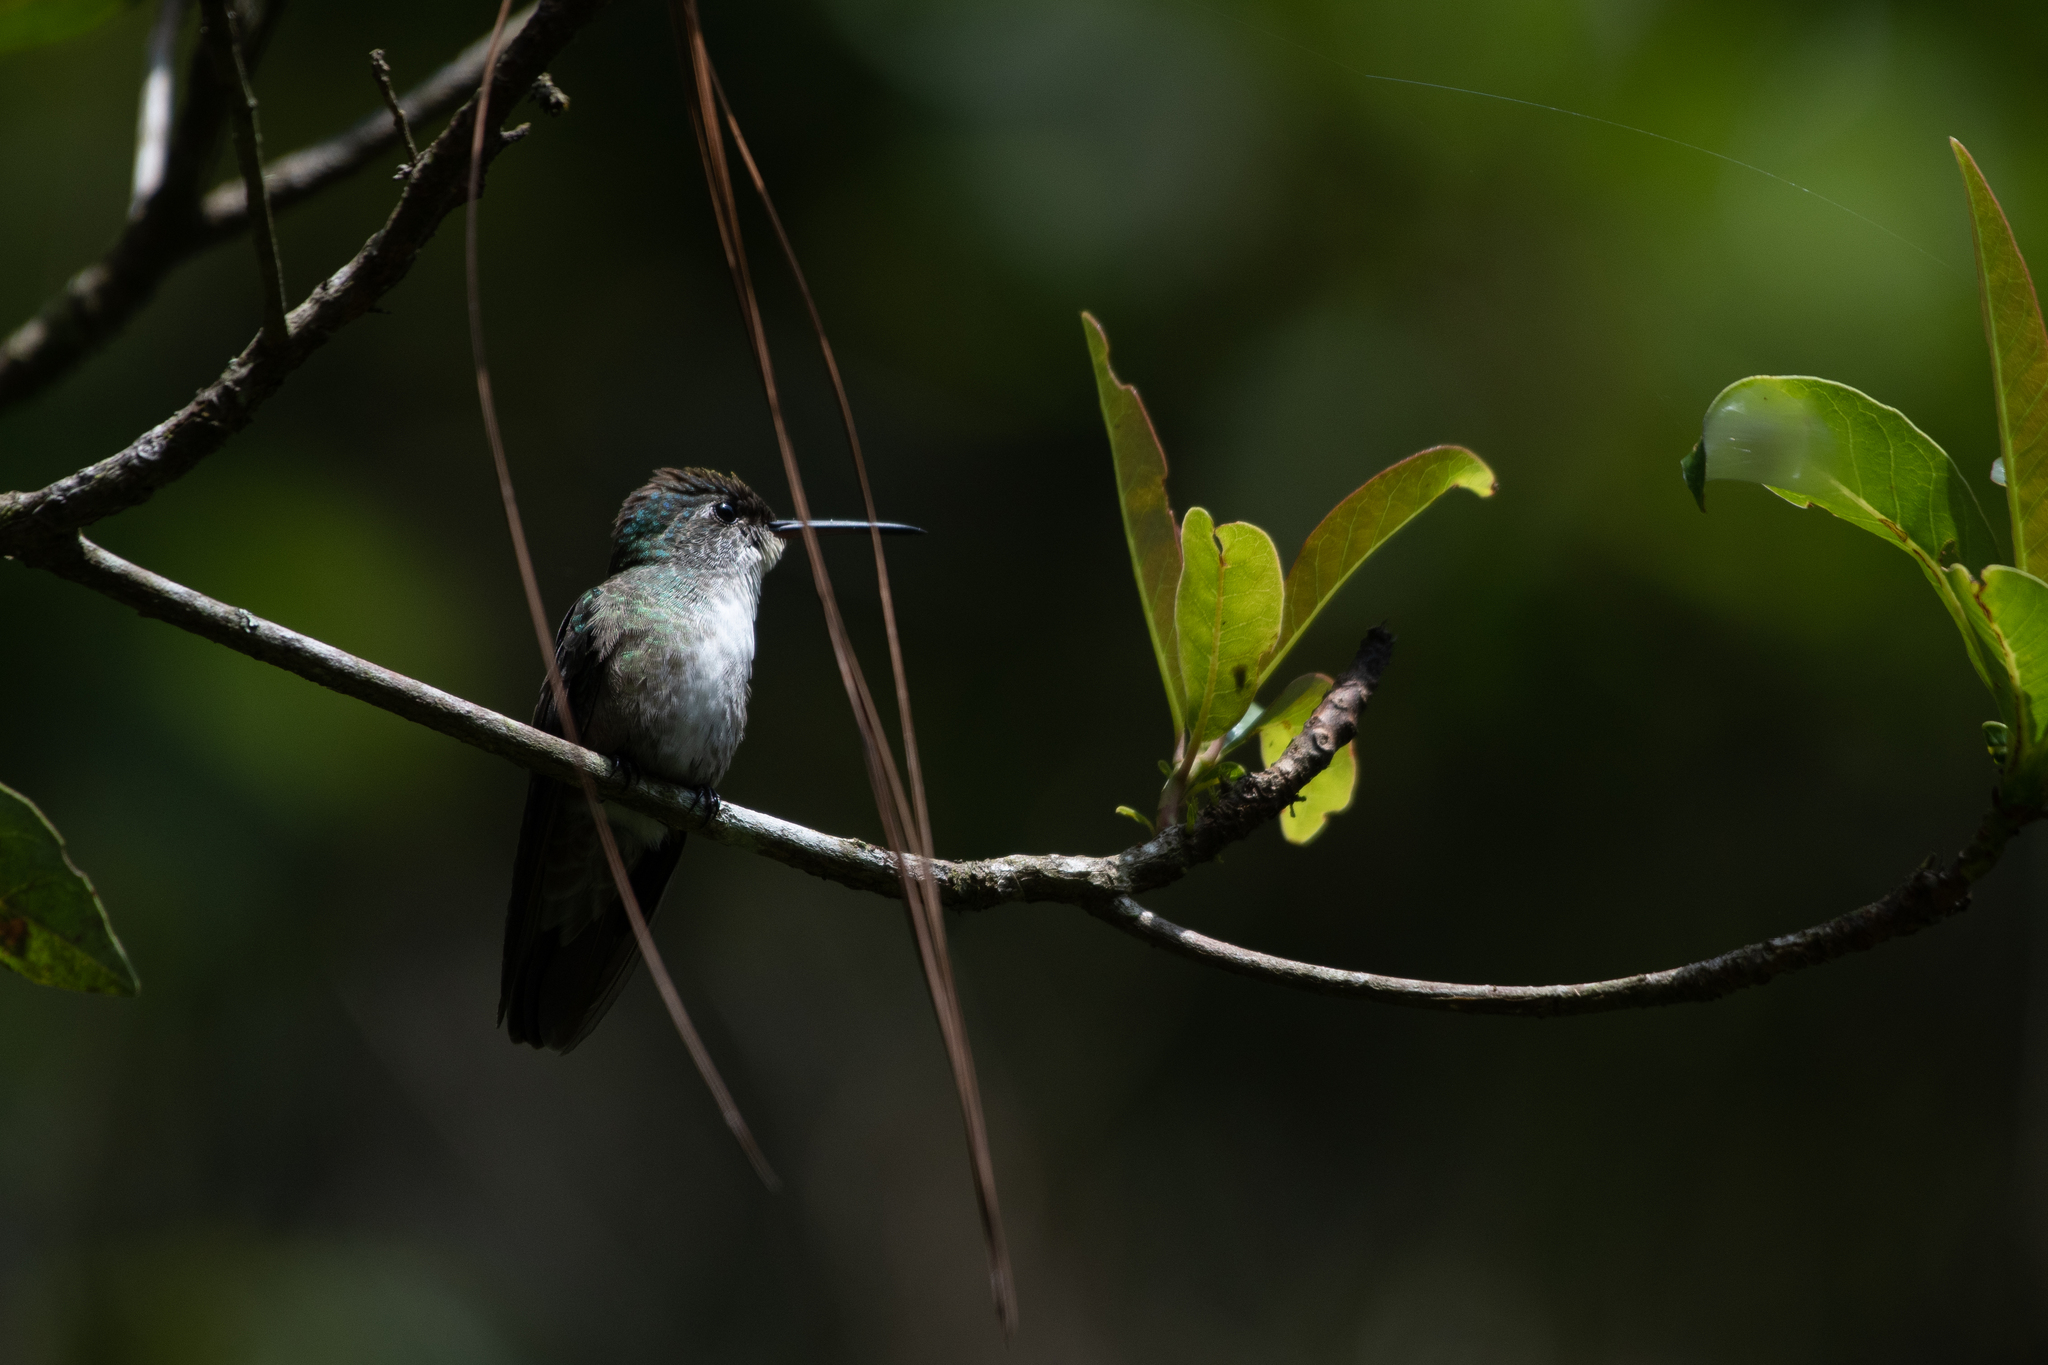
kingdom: Animalia
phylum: Chordata
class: Aves
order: Apodiformes
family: Trochilidae
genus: Saucerottia
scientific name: Saucerottia cyanocephala
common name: Azure-crowned hummingbird
